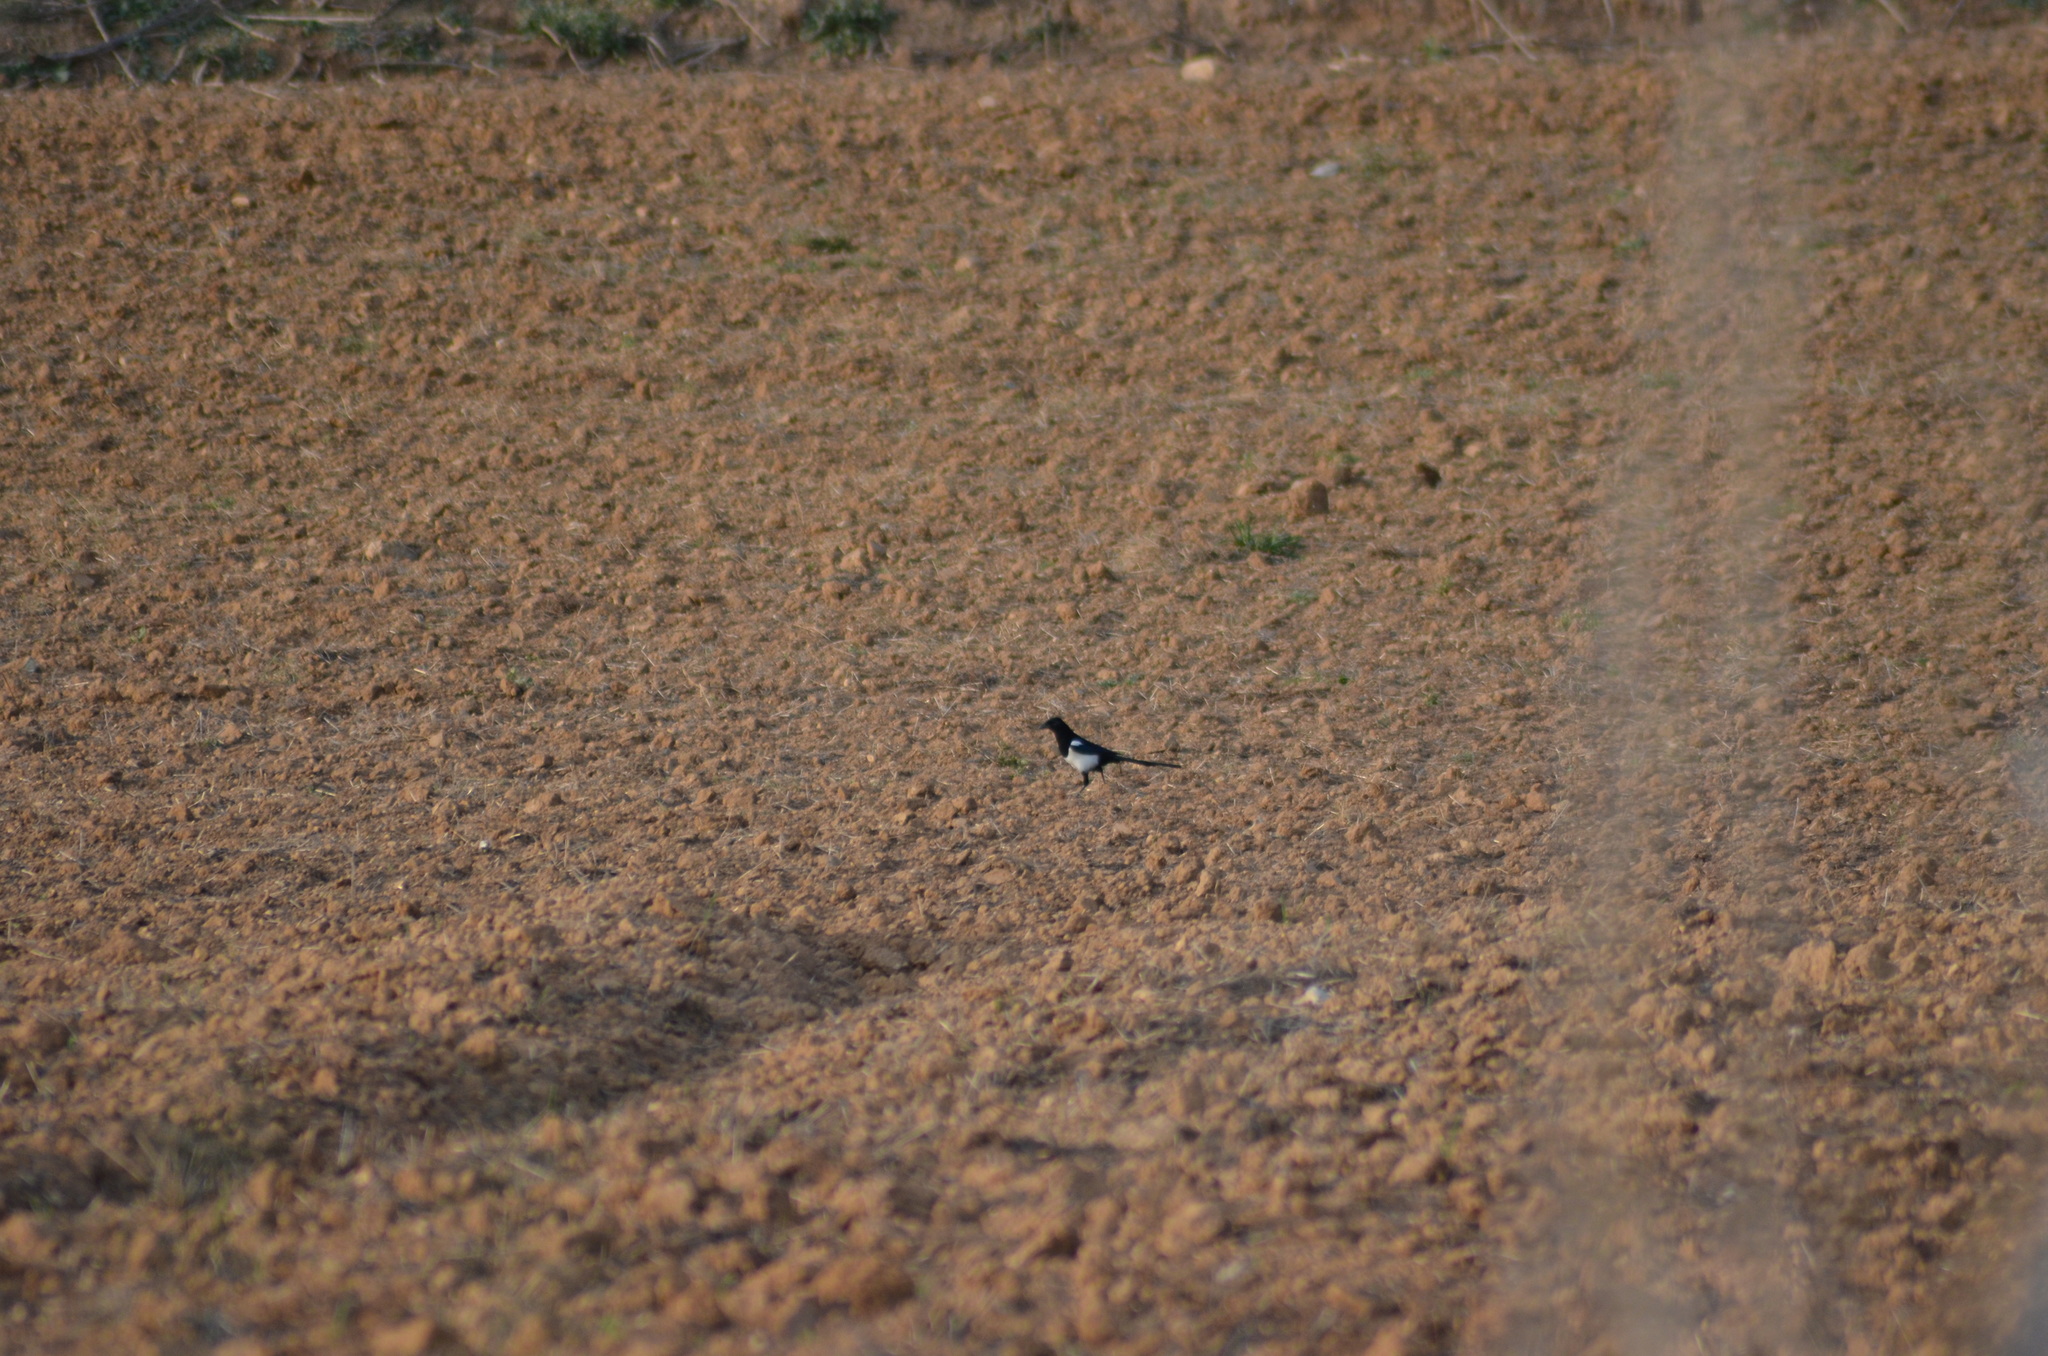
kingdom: Animalia
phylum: Chordata
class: Aves
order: Passeriformes
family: Corvidae
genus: Pica
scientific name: Pica pica
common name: Eurasian magpie
